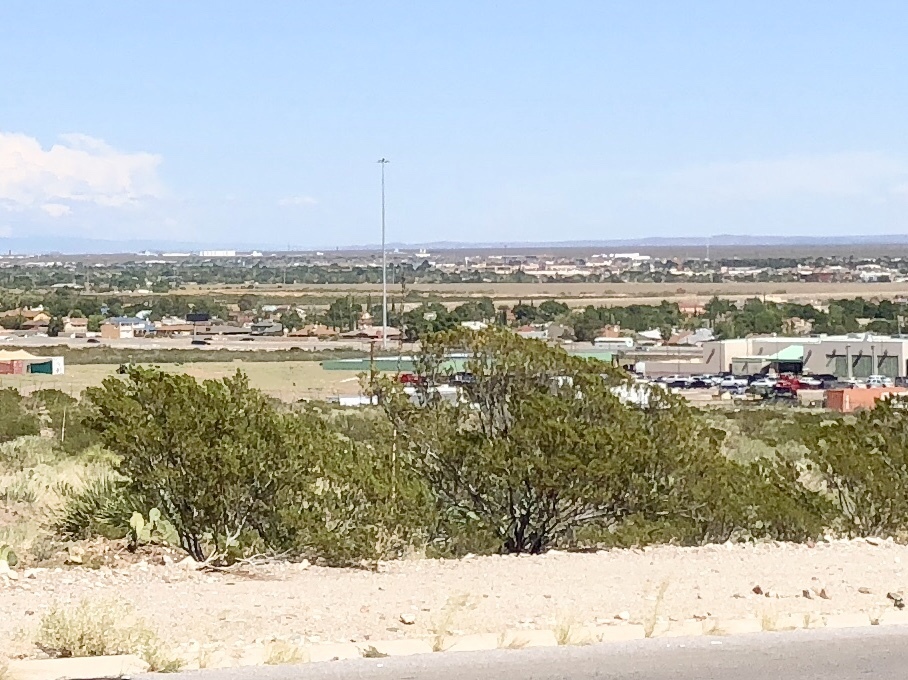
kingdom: Plantae
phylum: Tracheophyta
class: Magnoliopsida
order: Zygophyllales
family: Zygophyllaceae
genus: Larrea
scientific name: Larrea tridentata
